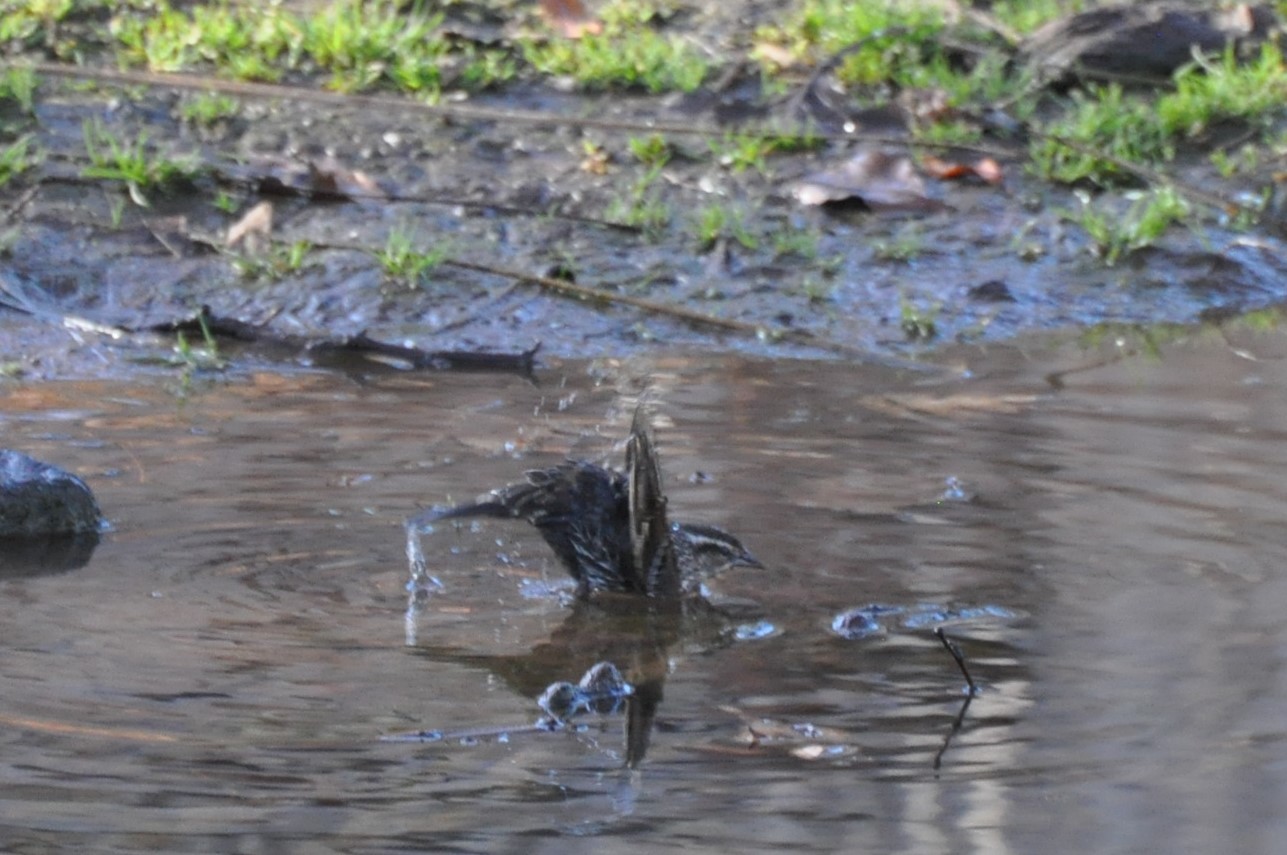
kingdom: Animalia
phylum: Chordata
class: Aves
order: Passeriformes
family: Icteridae
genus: Agelaius
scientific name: Agelaius phoeniceus
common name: Red-winged blackbird
